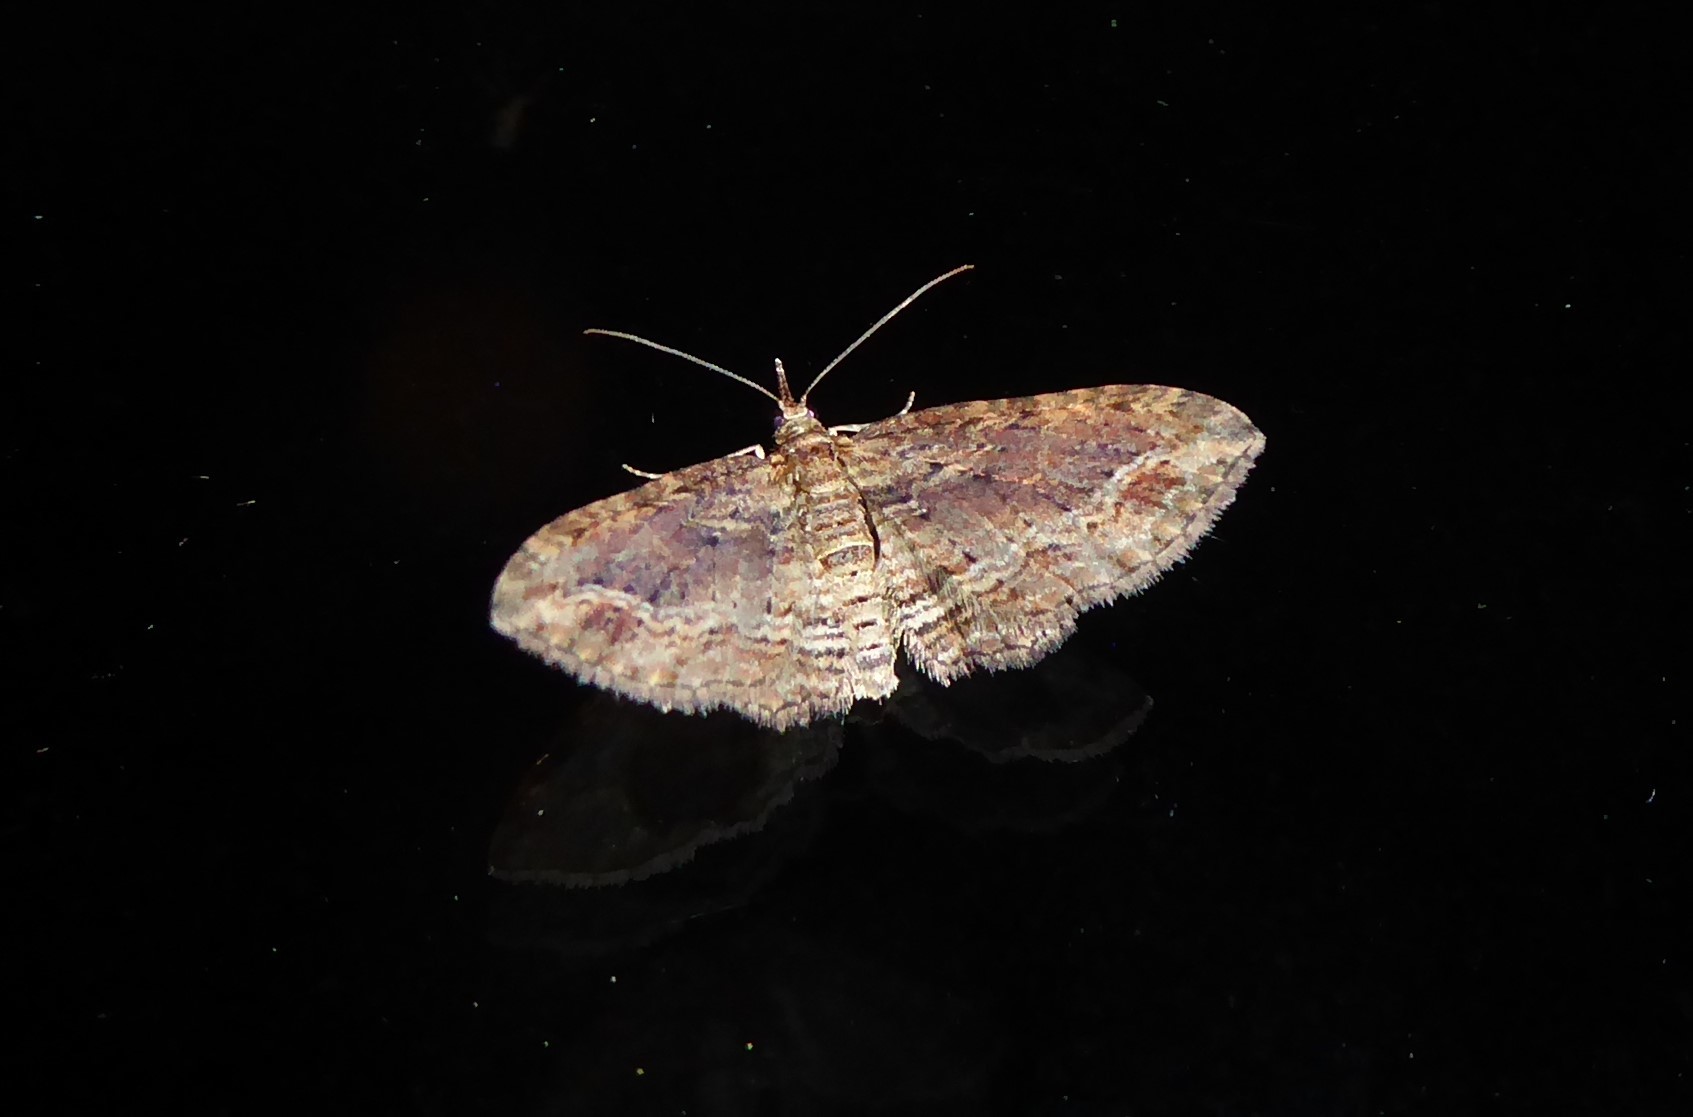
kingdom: Animalia
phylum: Arthropoda
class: Insecta
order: Lepidoptera
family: Geometridae
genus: Chloroclystis
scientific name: Chloroclystis filata
